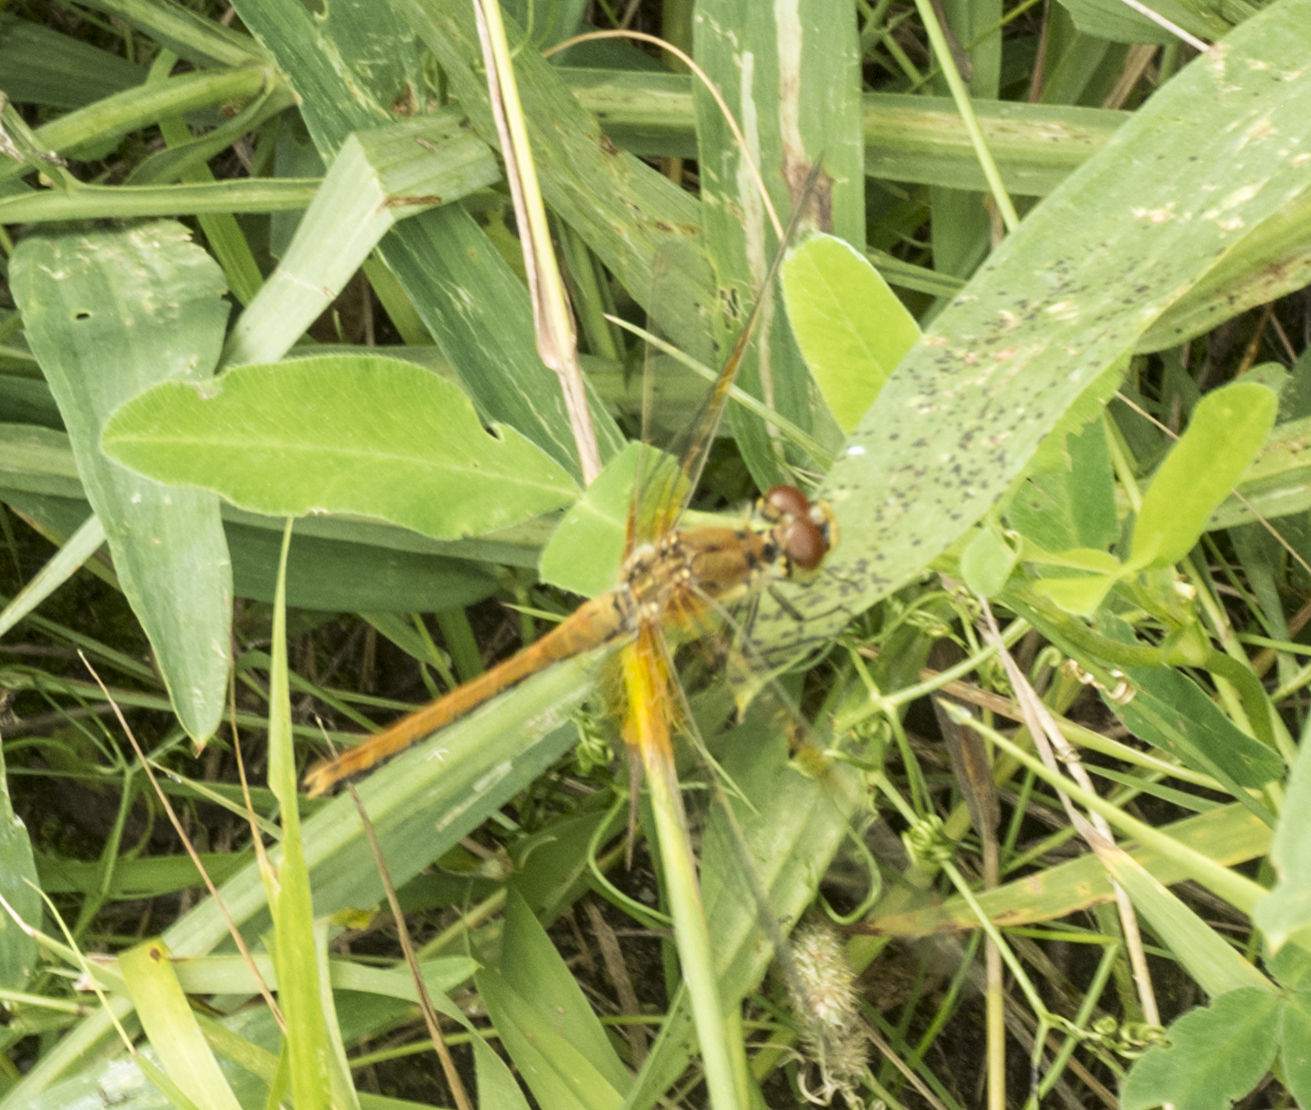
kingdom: Animalia
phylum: Arthropoda
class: Insecta
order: Odonata
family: Libellulidae
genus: Sympetrum
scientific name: Sympetrum flaveolum
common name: Yellow-winged darter
